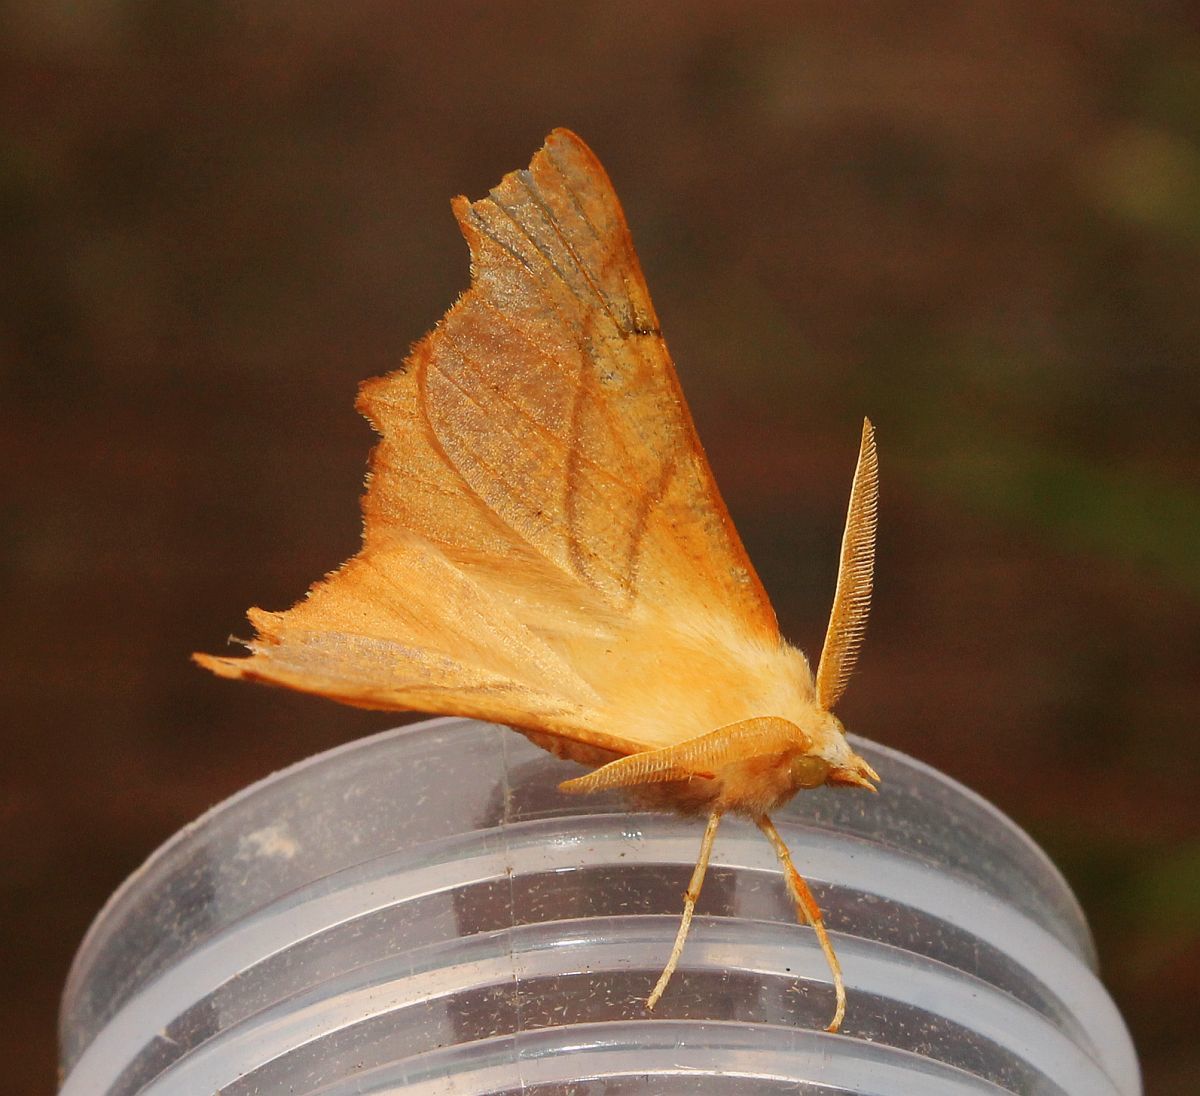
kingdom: Animalia
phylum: Arthropoda
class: Insecta
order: Lepidoptera
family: Geometridae
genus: Ennomos
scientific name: Ennomos fuscantaria
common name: Dusky thorn
